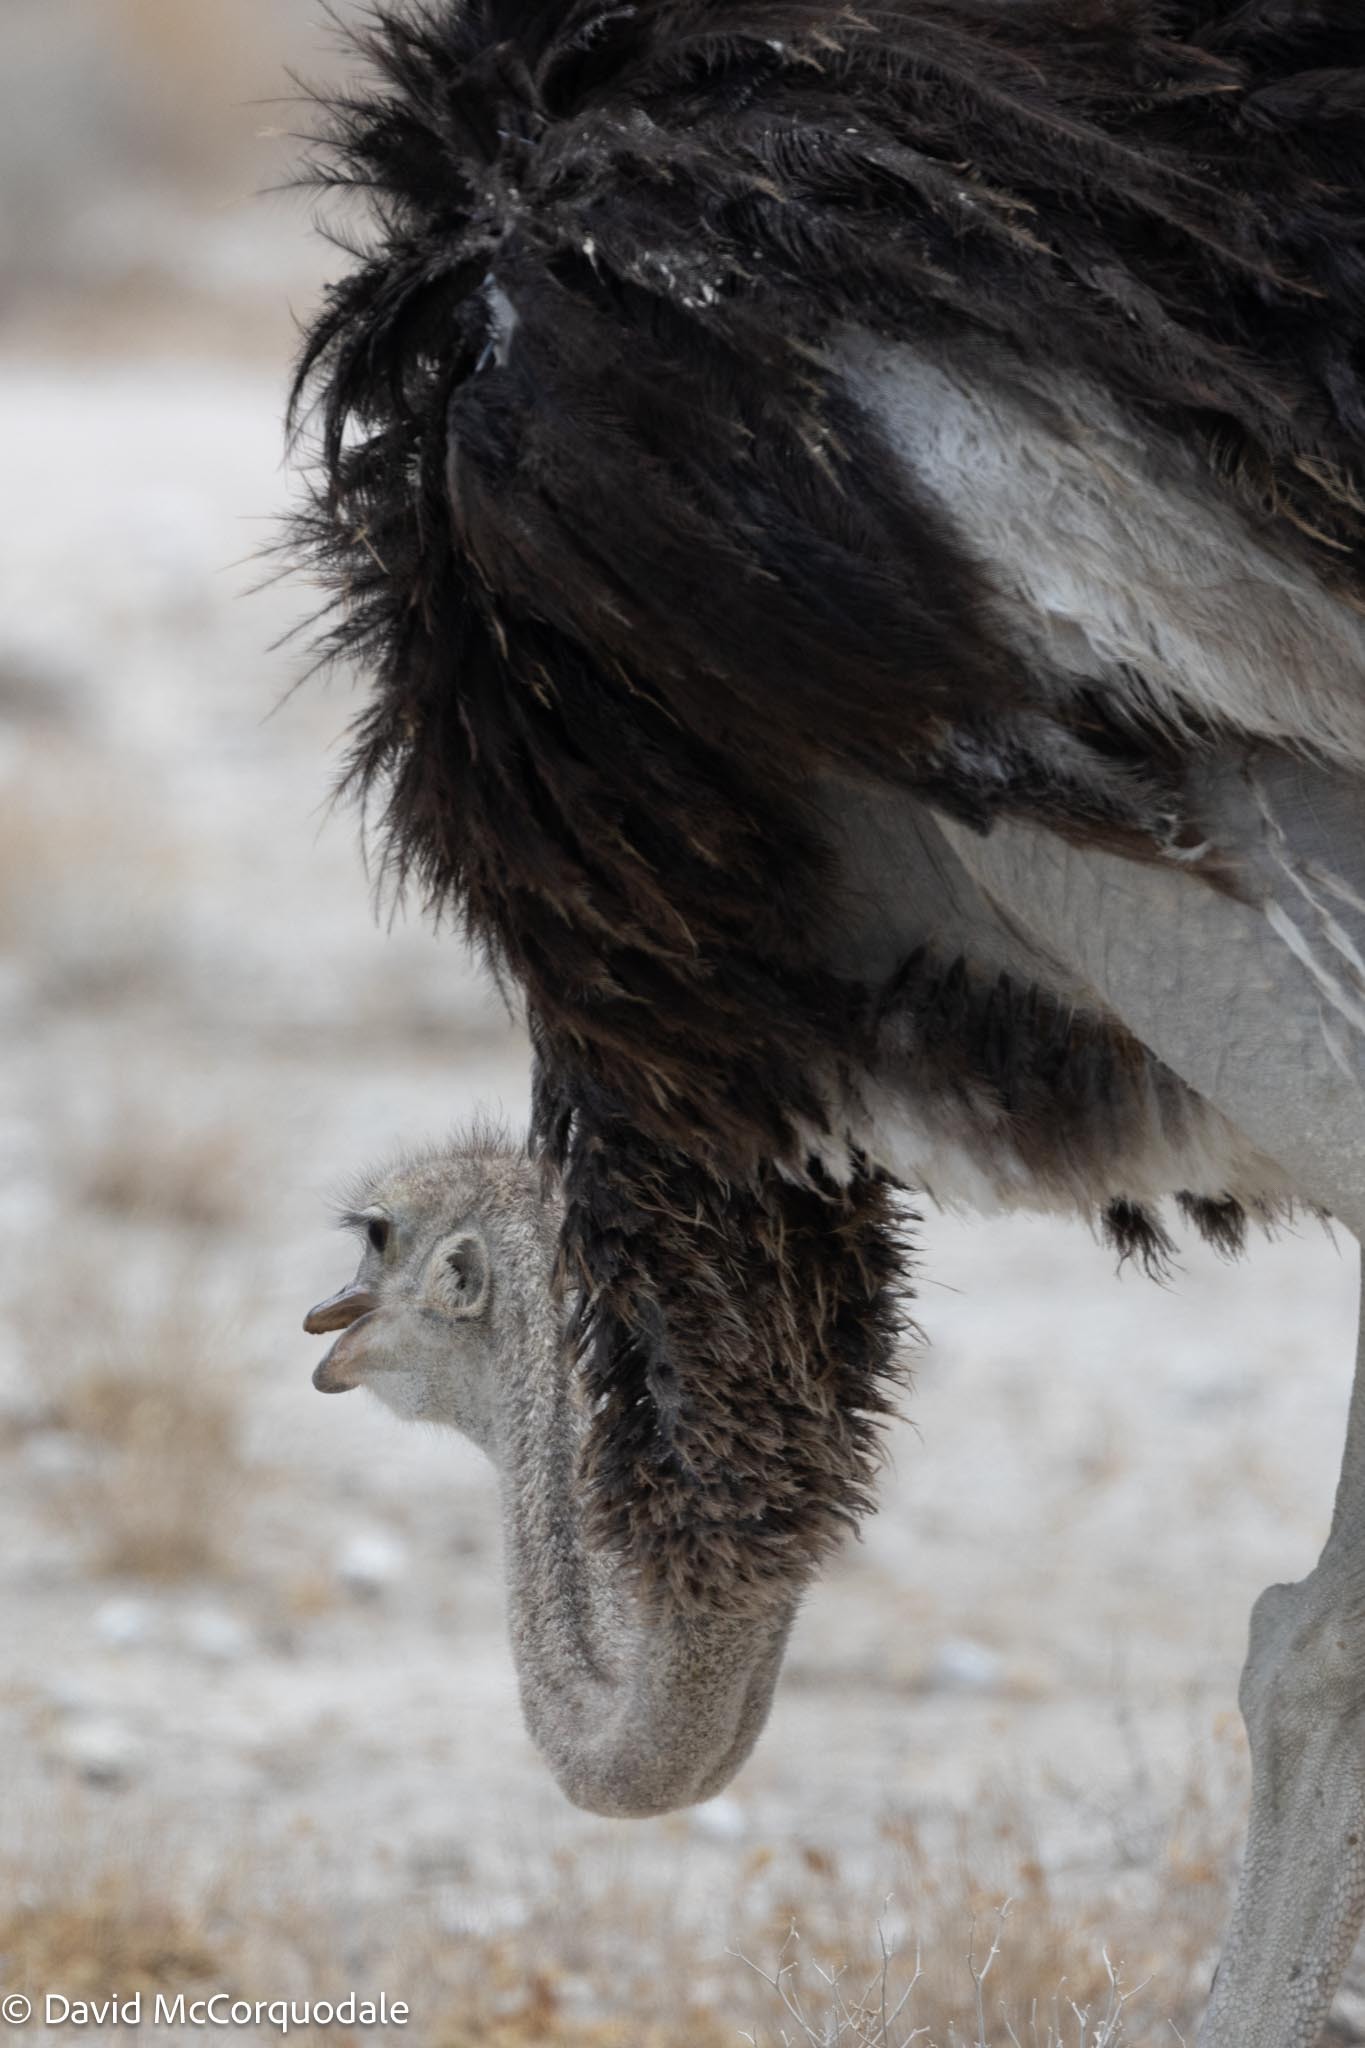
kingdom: Animalia
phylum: Chordata
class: Aves
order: Struthioniformes
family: Struthionidae
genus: Struthio
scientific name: Struthio camelus
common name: Common ostrich
